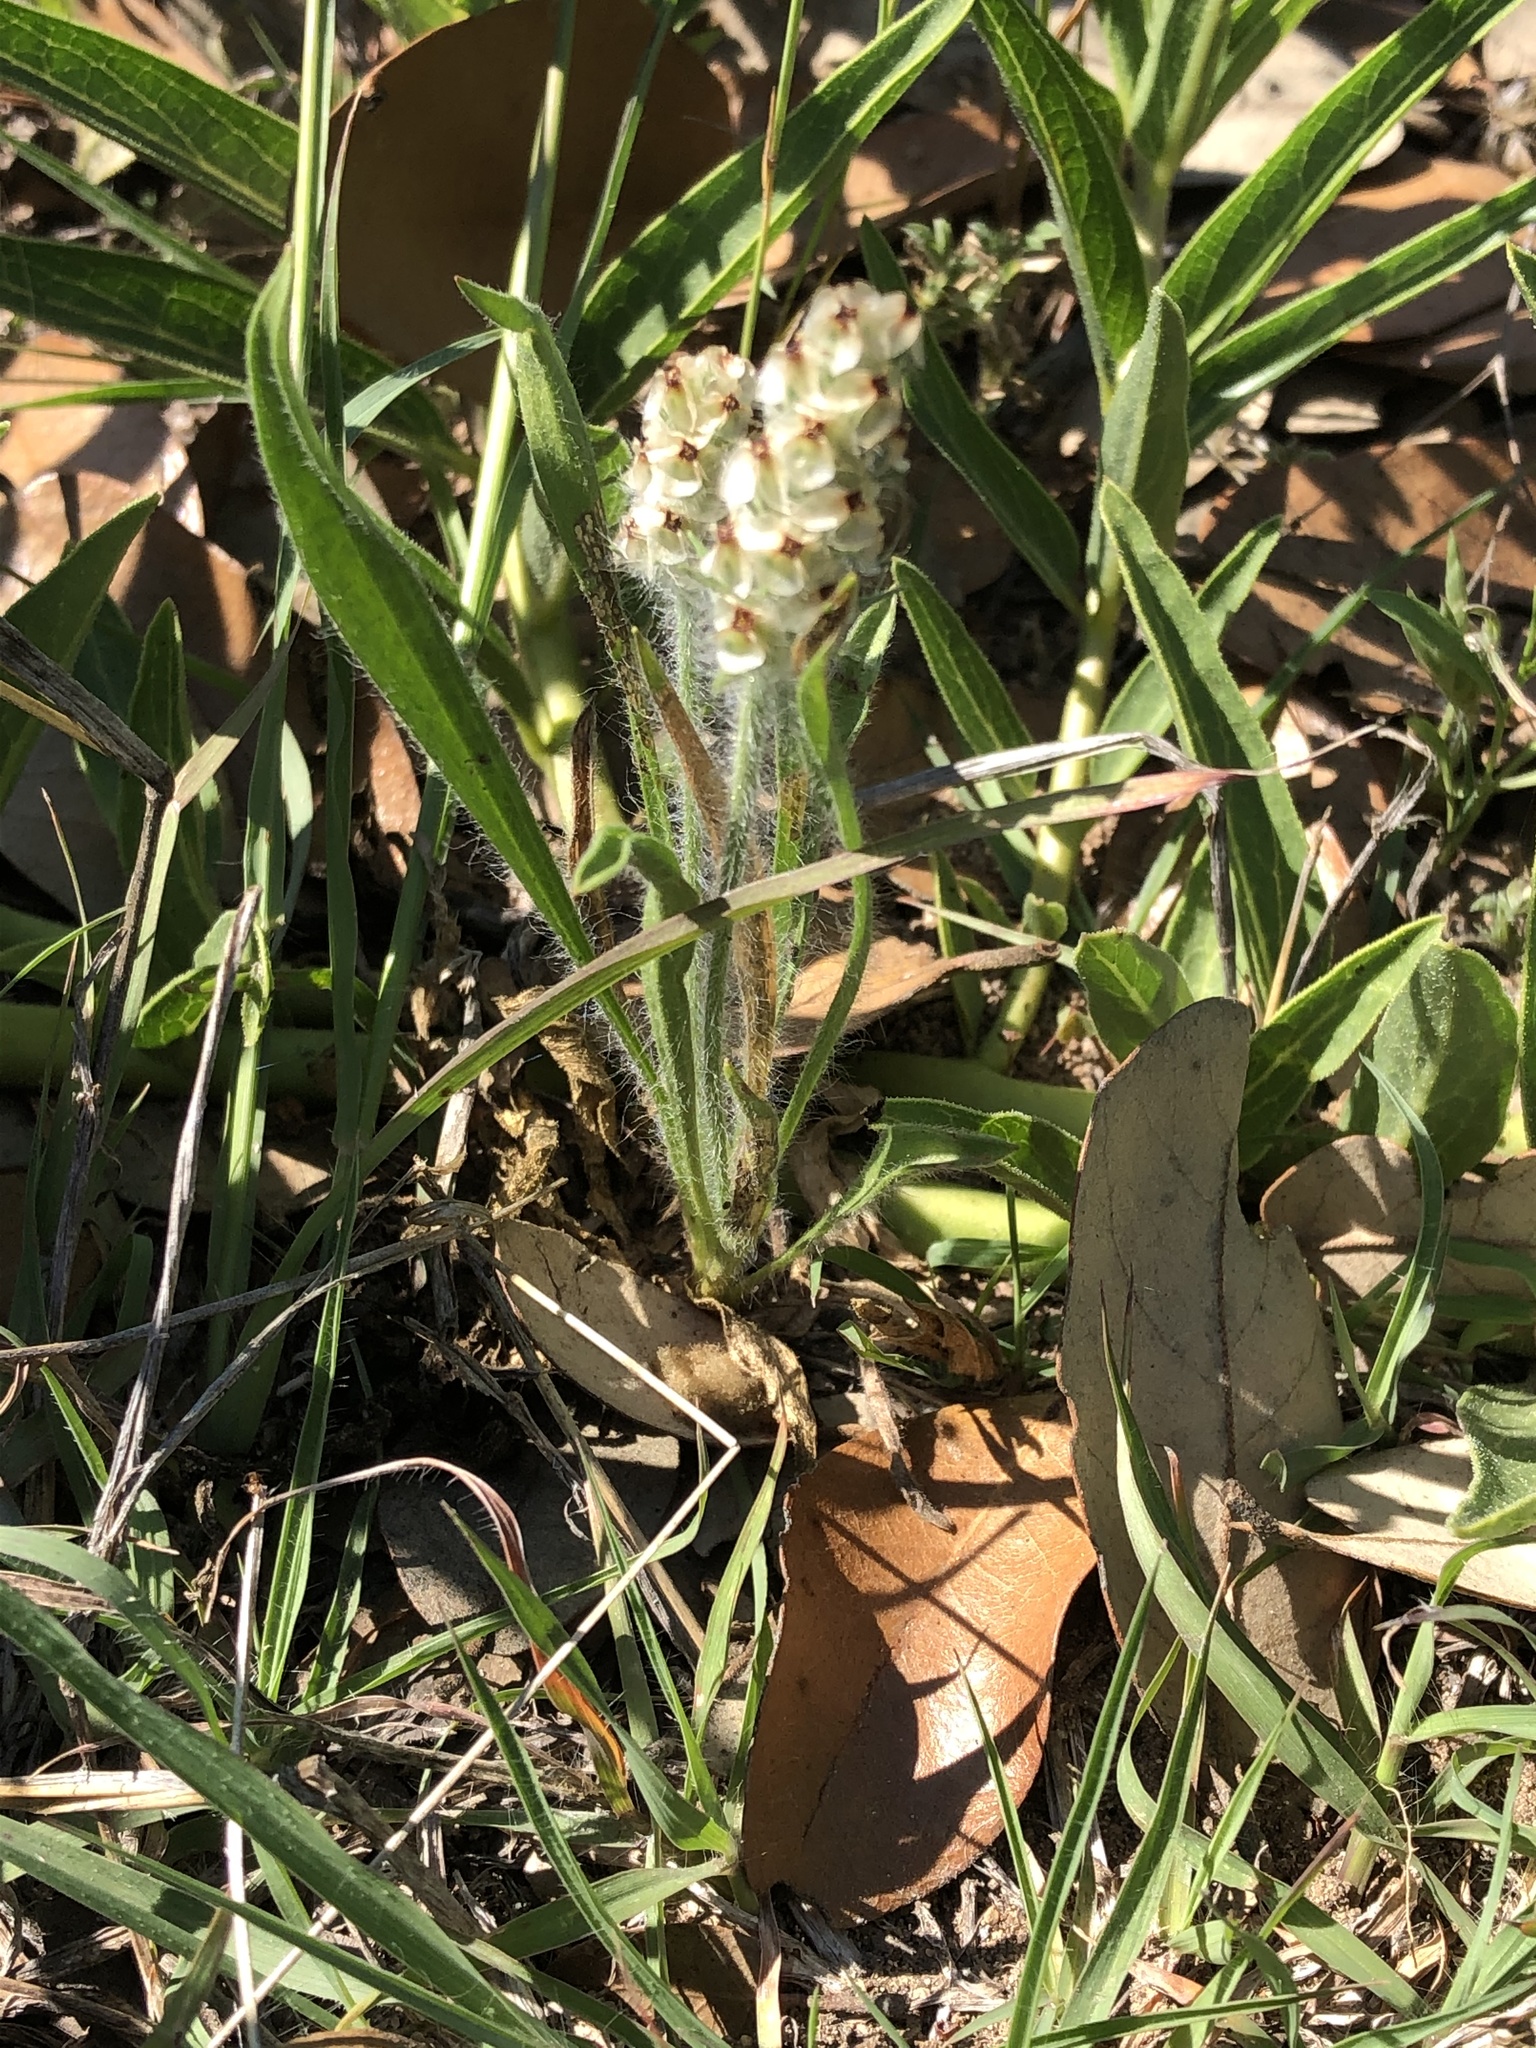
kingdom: Plantae
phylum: Tracheophyta
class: Magnoliopsida
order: Lamiales
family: Plantaginaceae
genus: Plantago
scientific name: Plantago helleri
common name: Heller's plantain
